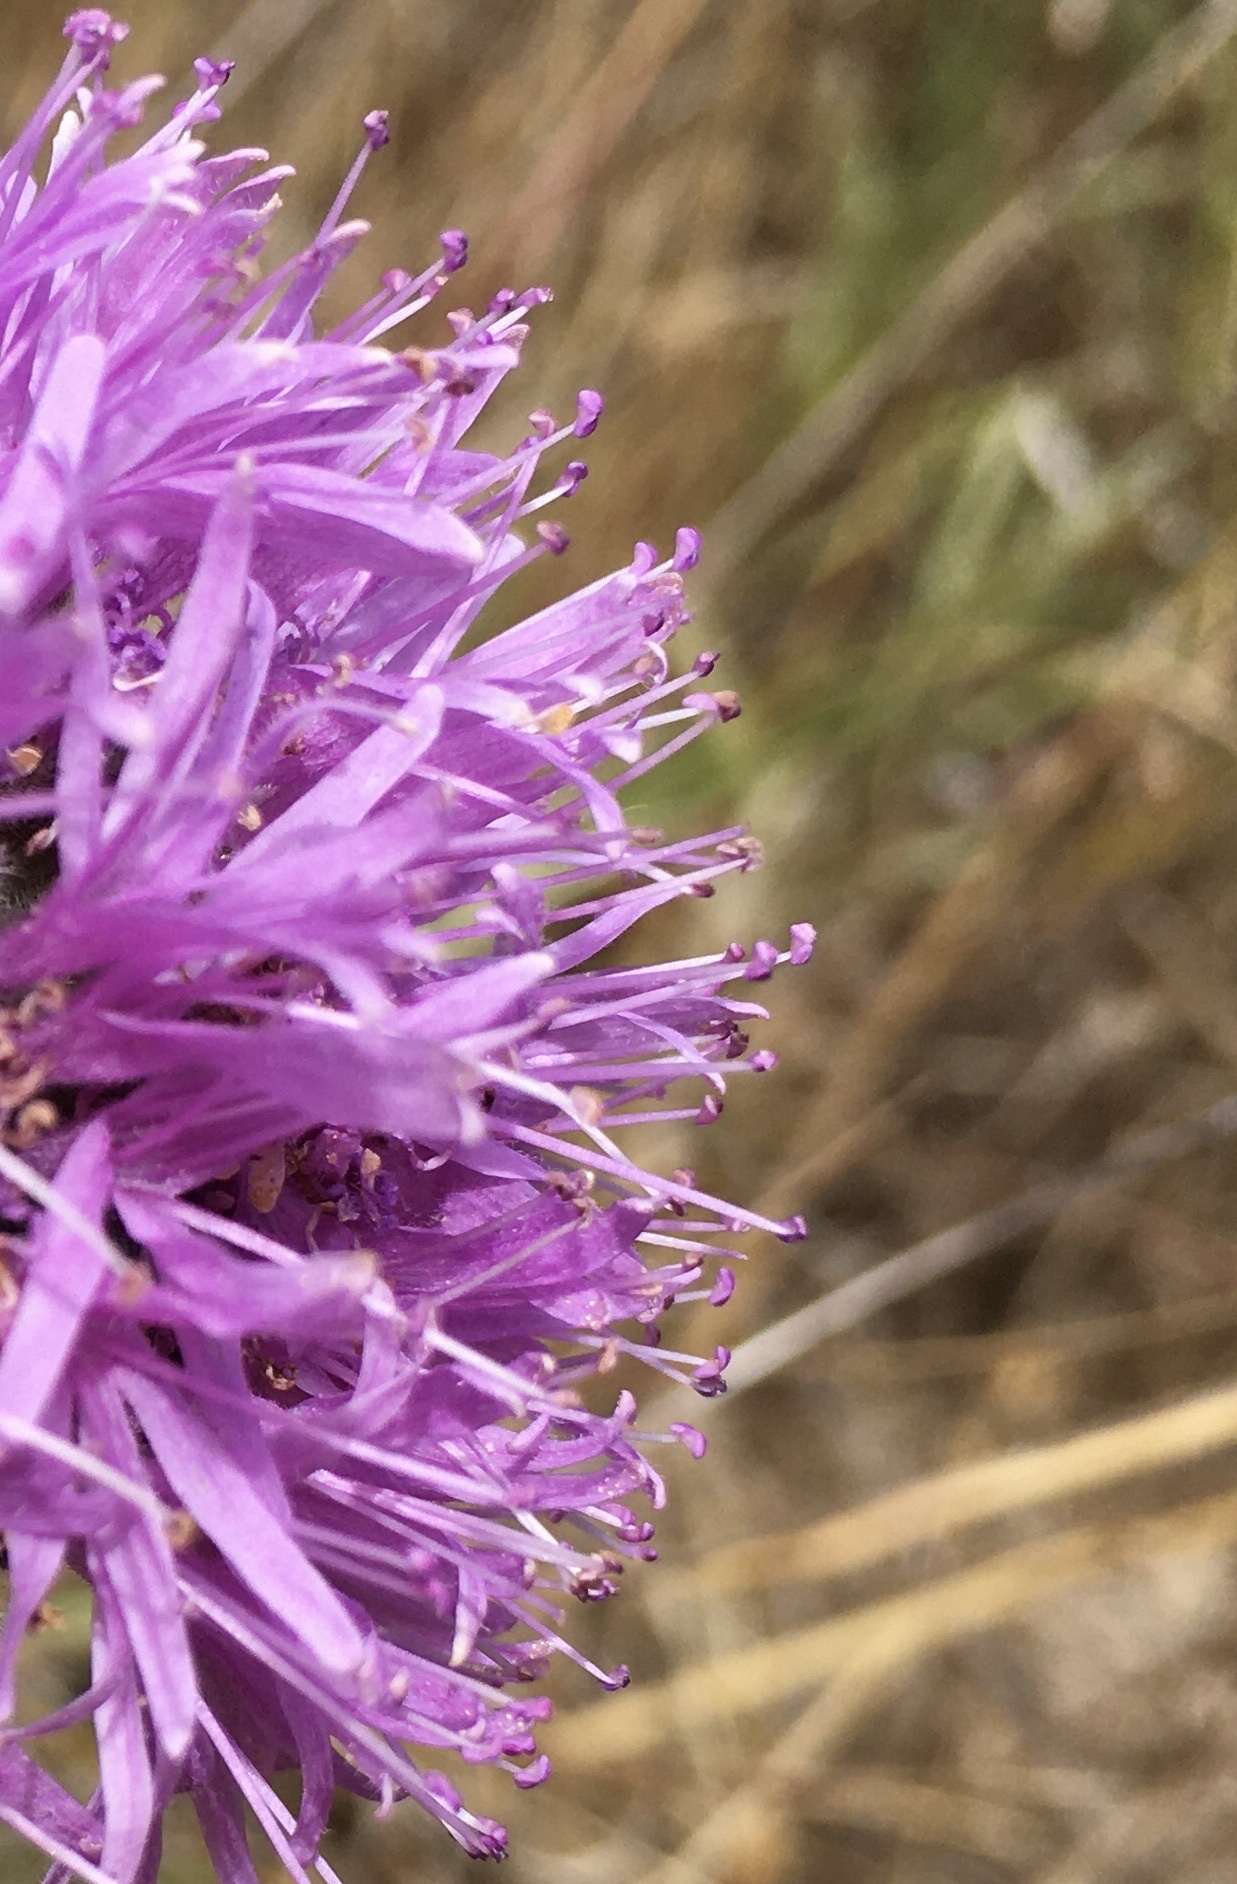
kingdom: Plantae
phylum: Tracheophyta
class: Magnoliopsida
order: Lamiales
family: Lamiaceae
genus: Monardella
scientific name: Monardella odoratissima
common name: Pacific monardella
